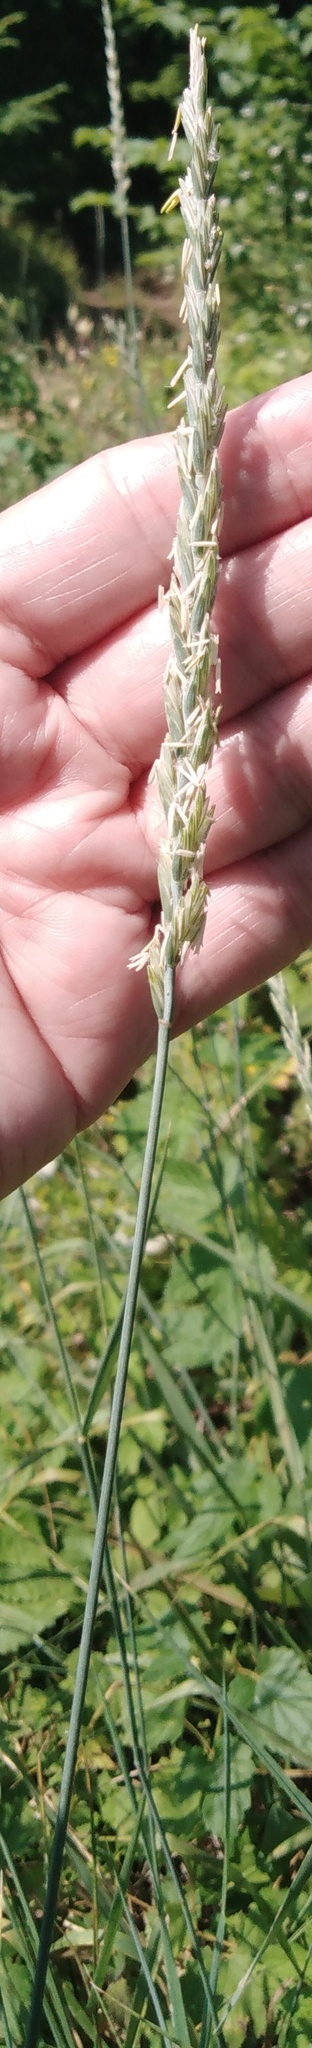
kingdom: Plantae
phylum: Tracheophyta
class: Liliopsida
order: Poales
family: Poaceae
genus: Elymus
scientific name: Elymus repens
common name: Quackgrass
